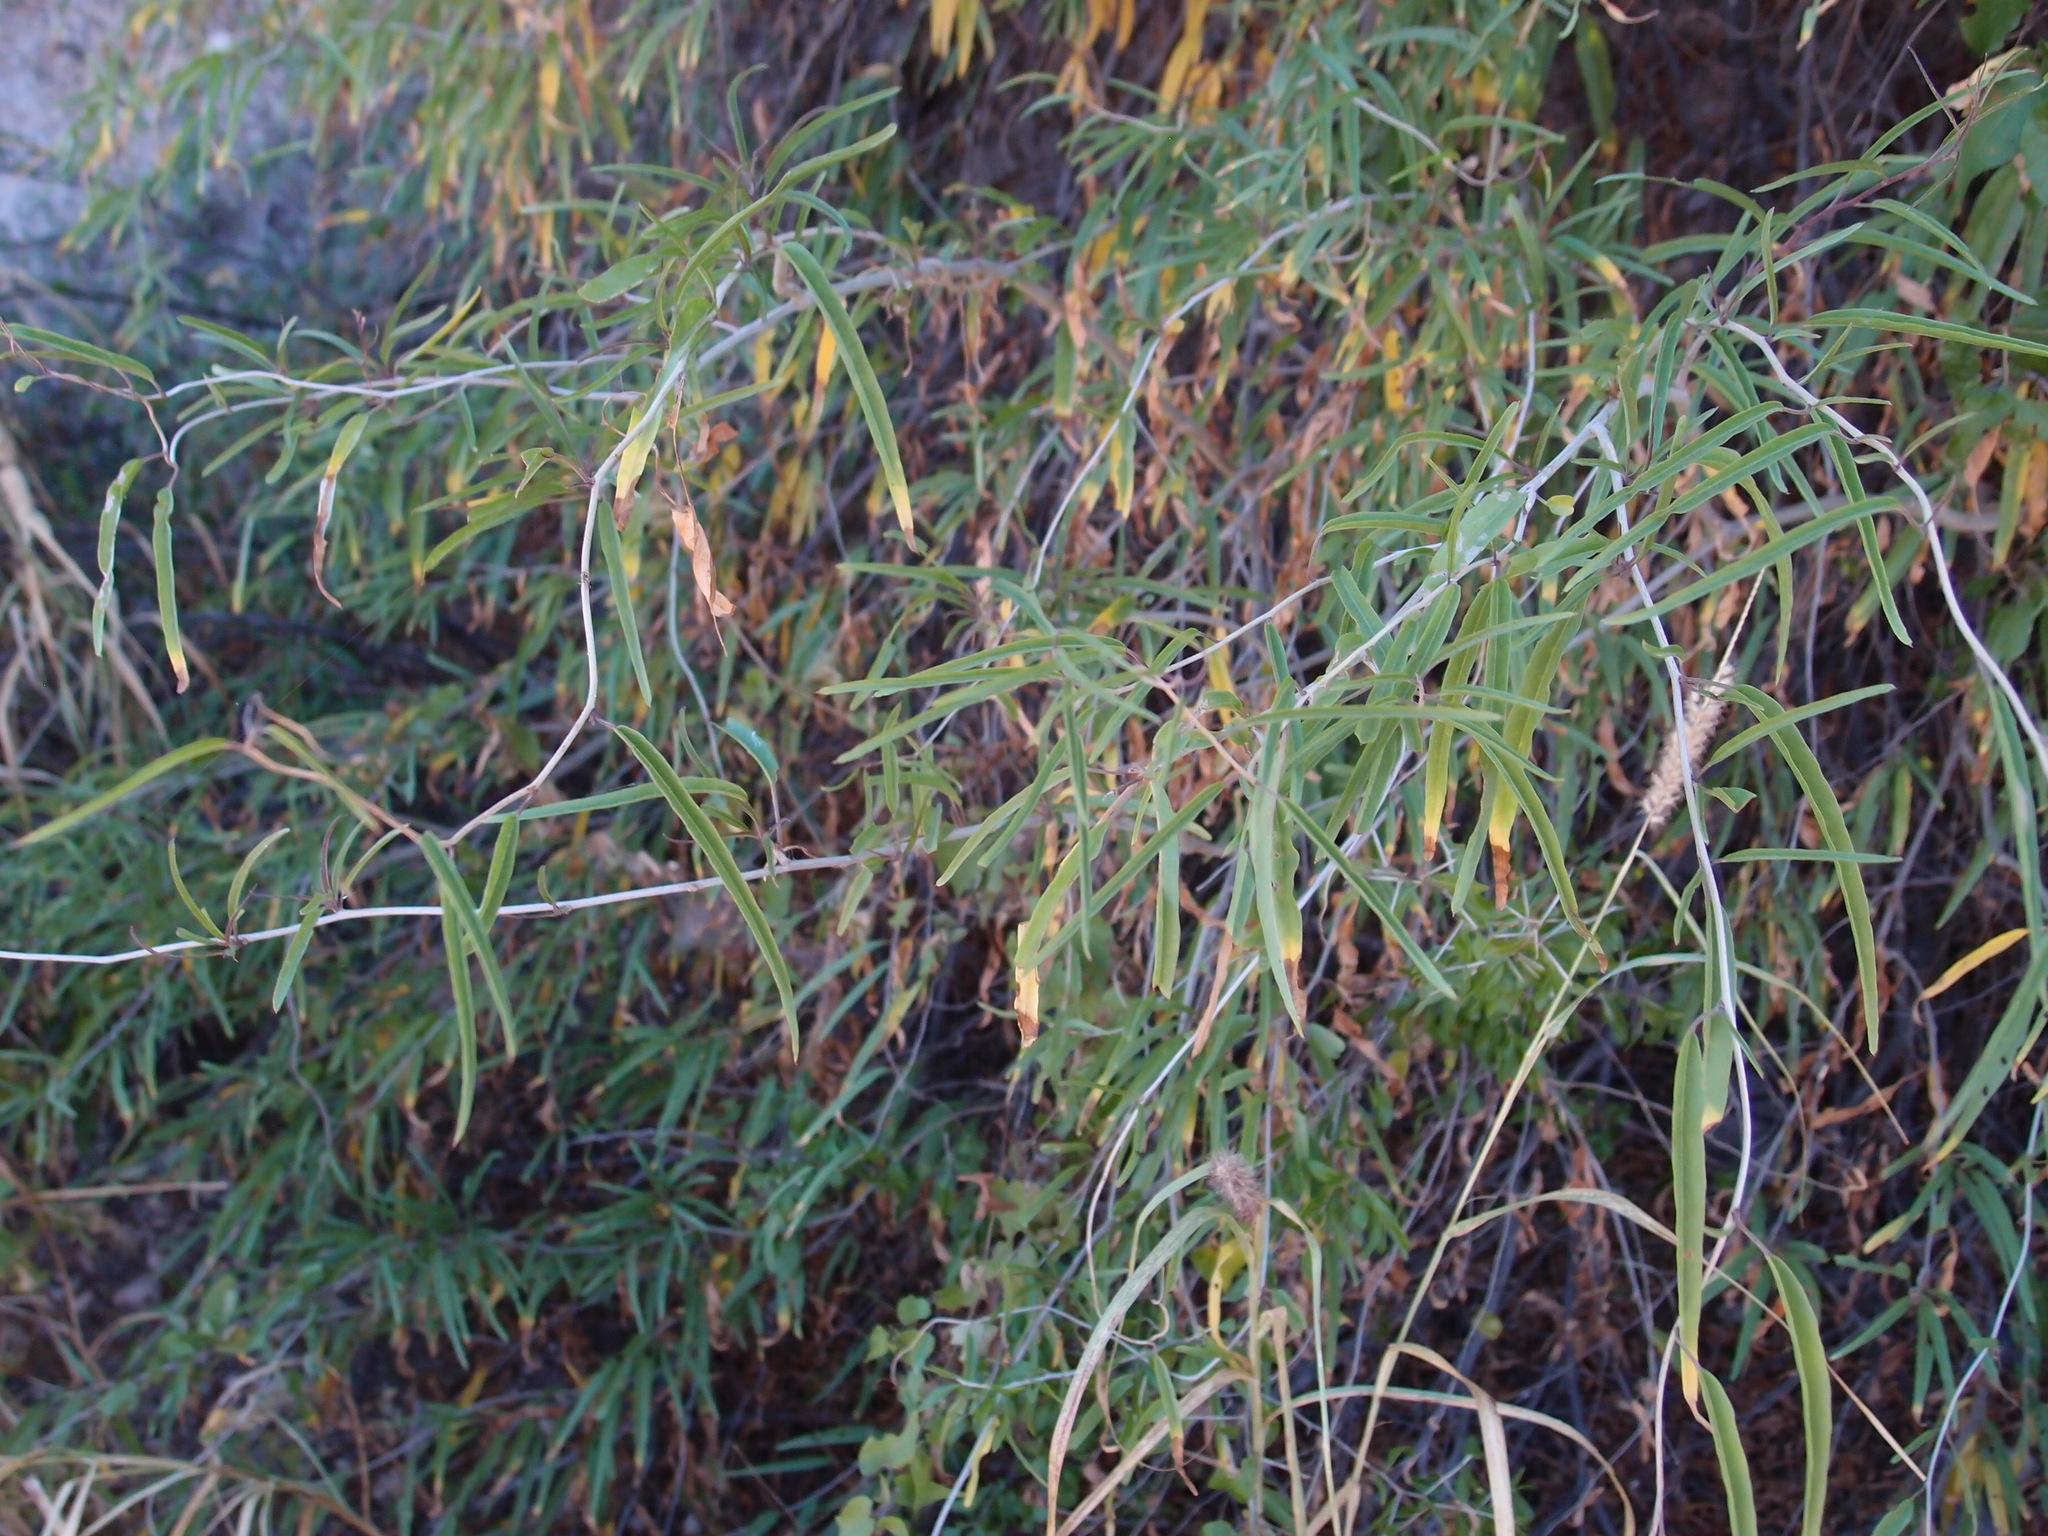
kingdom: Plantae
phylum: Tracheophyta
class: Magnoliopsida
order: Solanales
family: Convolvulaceae
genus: Ipomoea
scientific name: Ipomoea seaania
